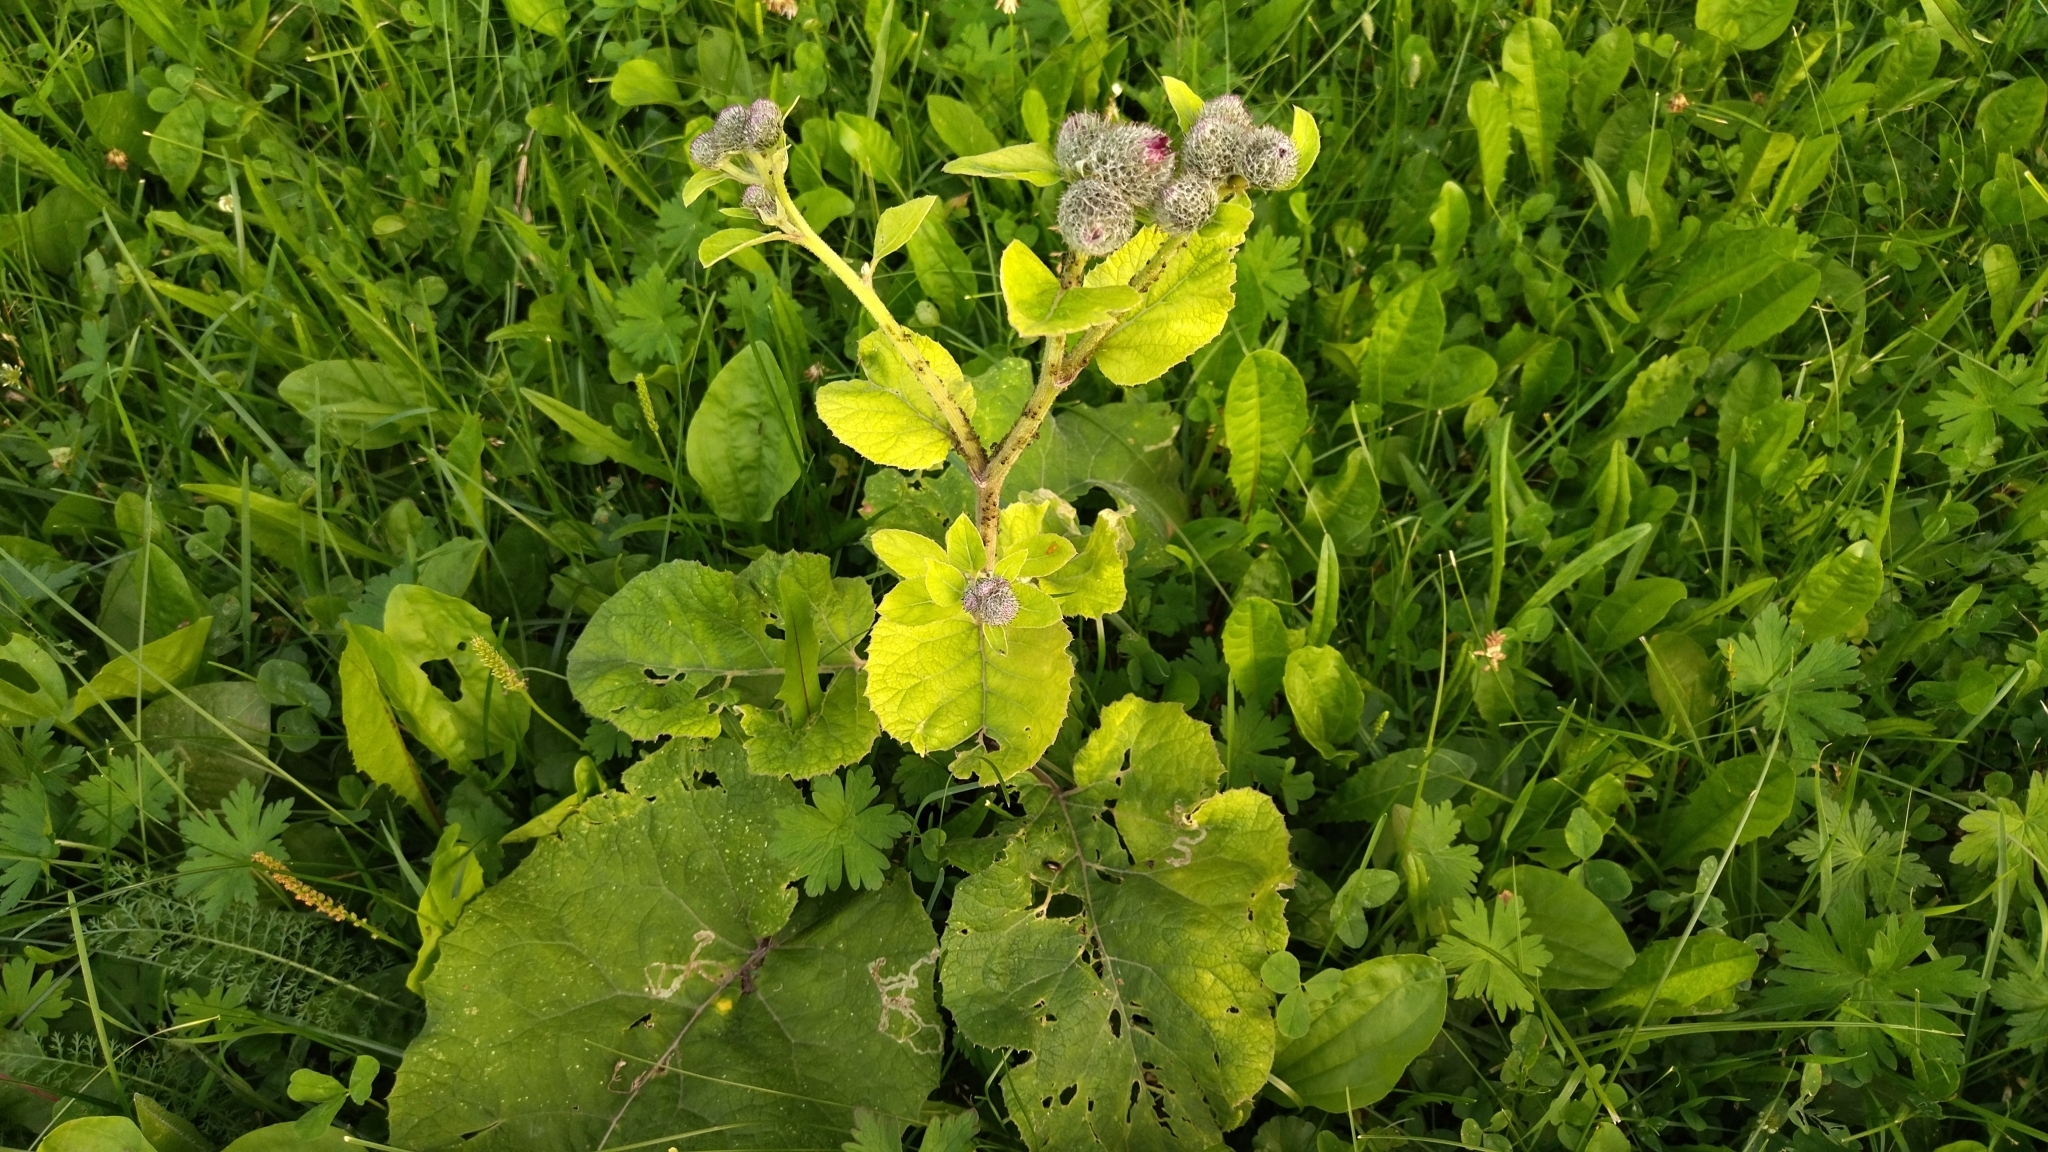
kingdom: Plantae
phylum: Tracheophyta
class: Magnoliopsida
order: Asterales
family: Asteraceae
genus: Arctium
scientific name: Arctium tomentosum
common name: Woolly burdock
